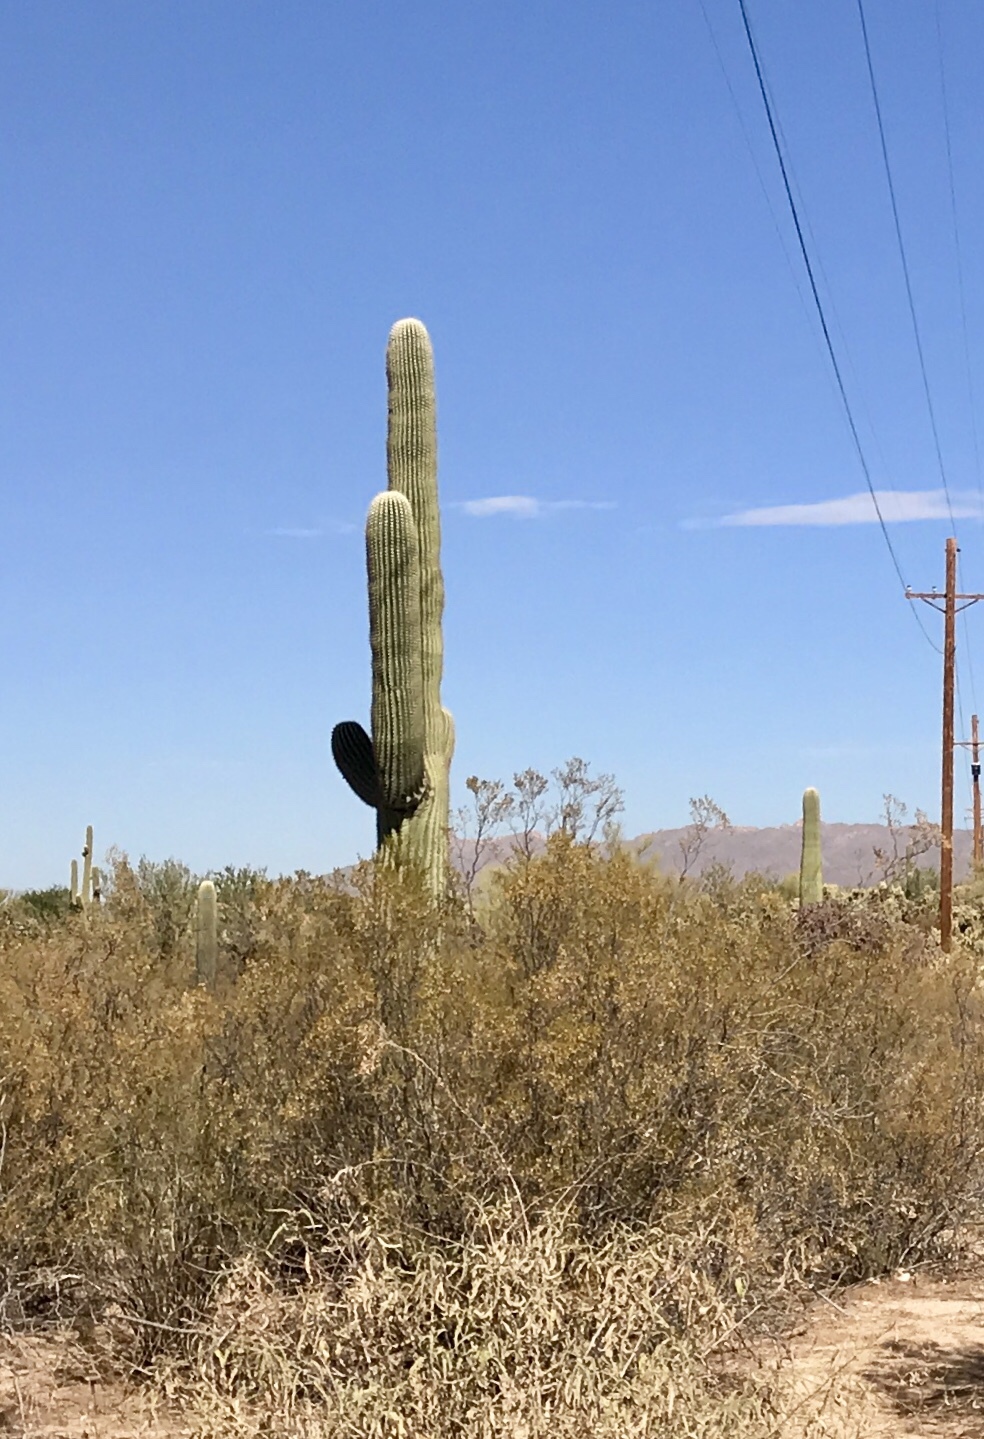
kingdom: Plantae
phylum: Tracheophyta
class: Magnoliopsida
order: Caryophyllales
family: Cactaceae
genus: Carnegiea
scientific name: Carnegiea gigantea
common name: Saguaro
